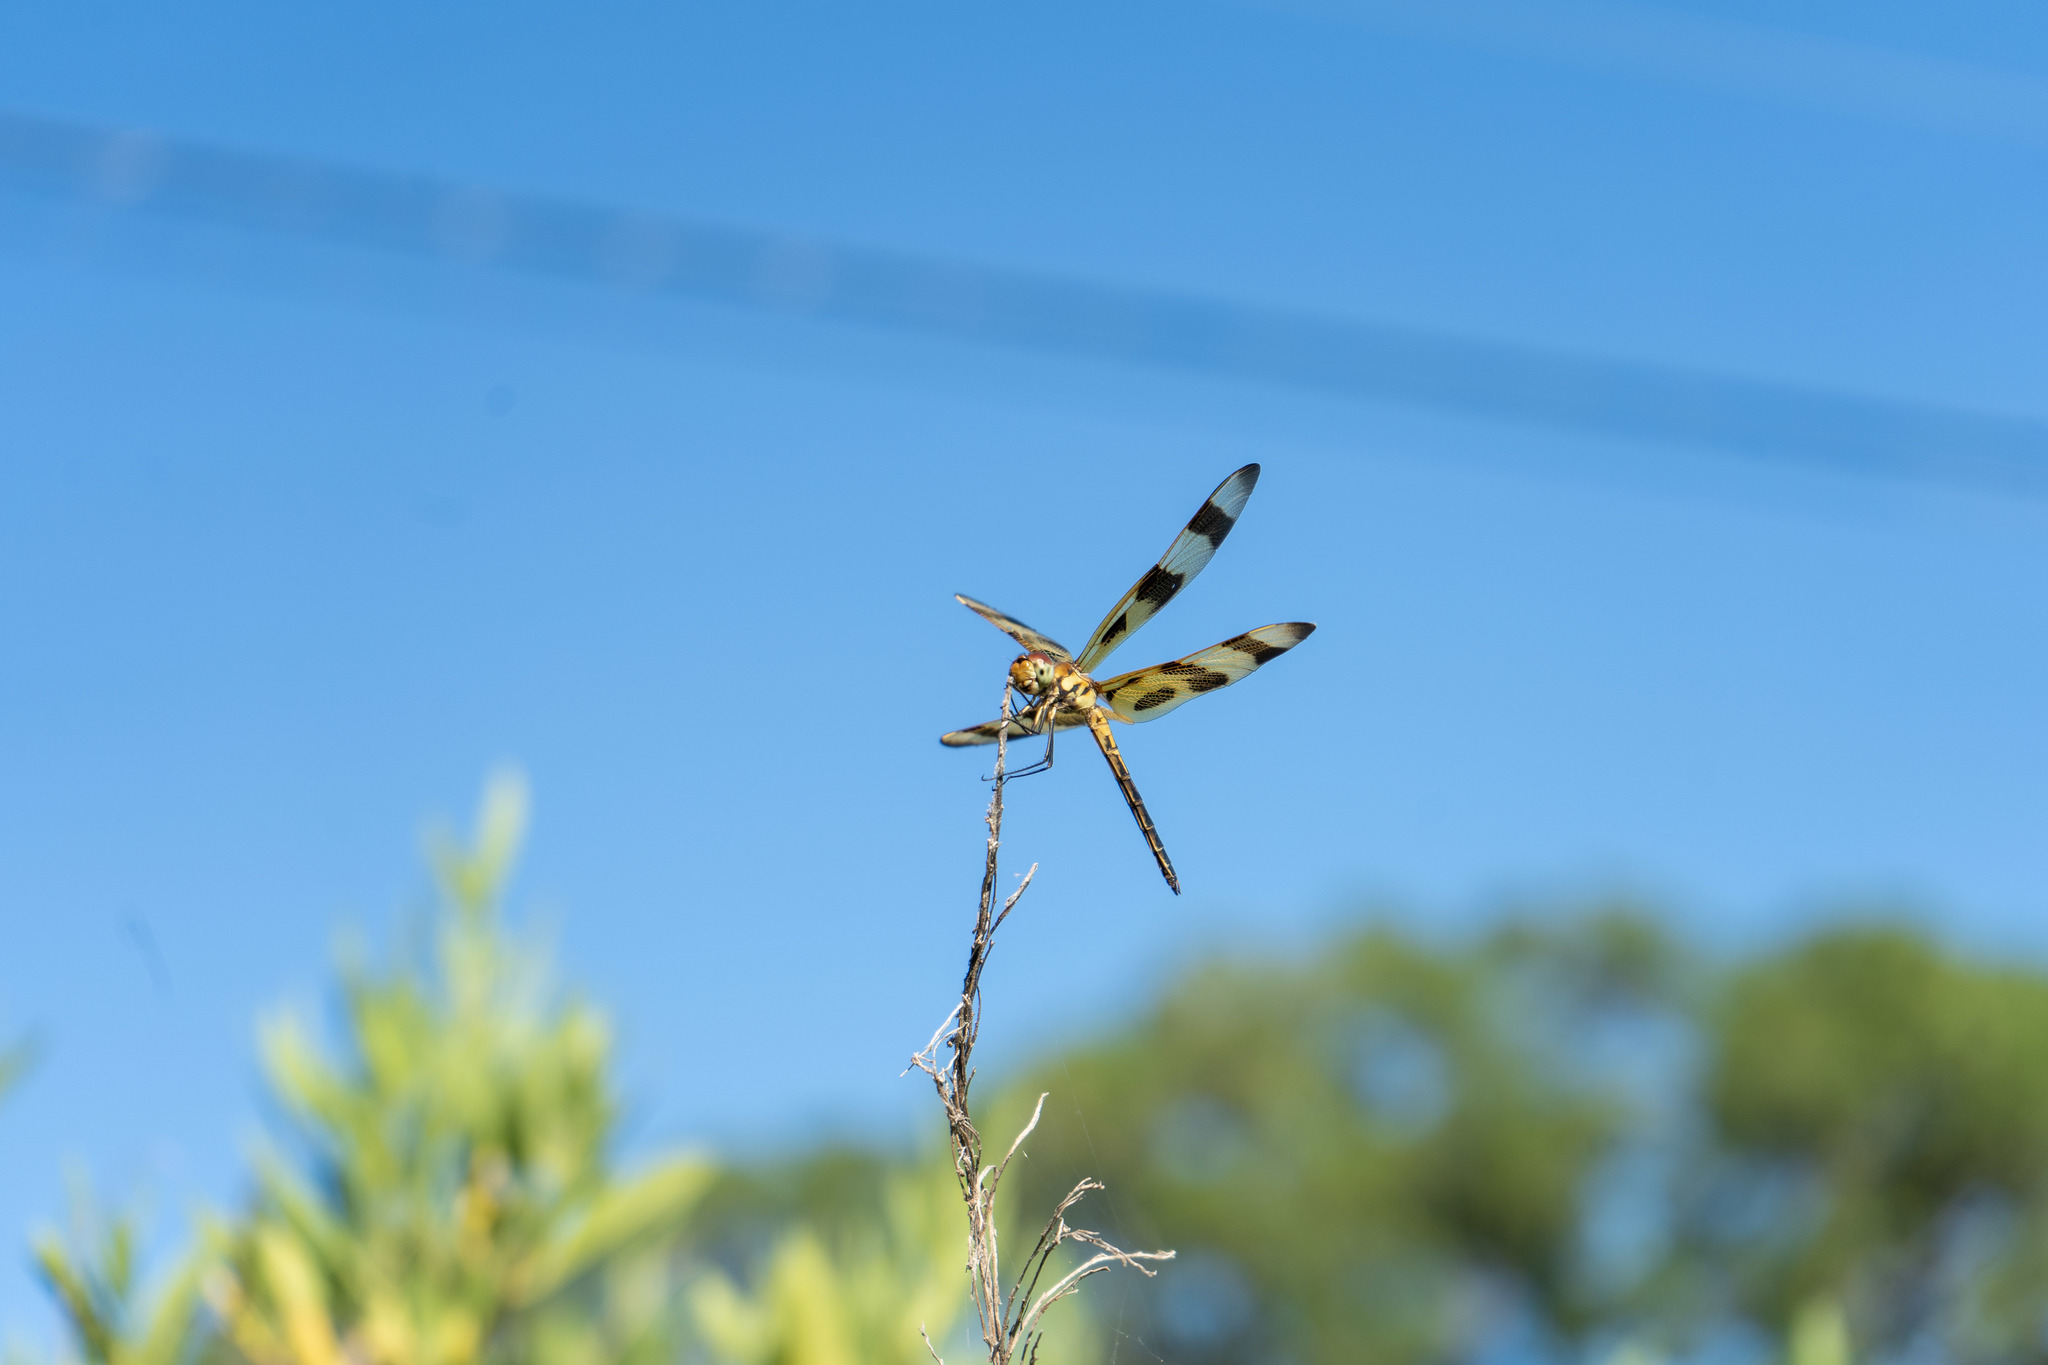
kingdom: Animalia
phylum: Arthropoda
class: Insecta
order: Odonata
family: Libellulidae
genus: Celithemis
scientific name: Celithemis eponina
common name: Halloween pennant
